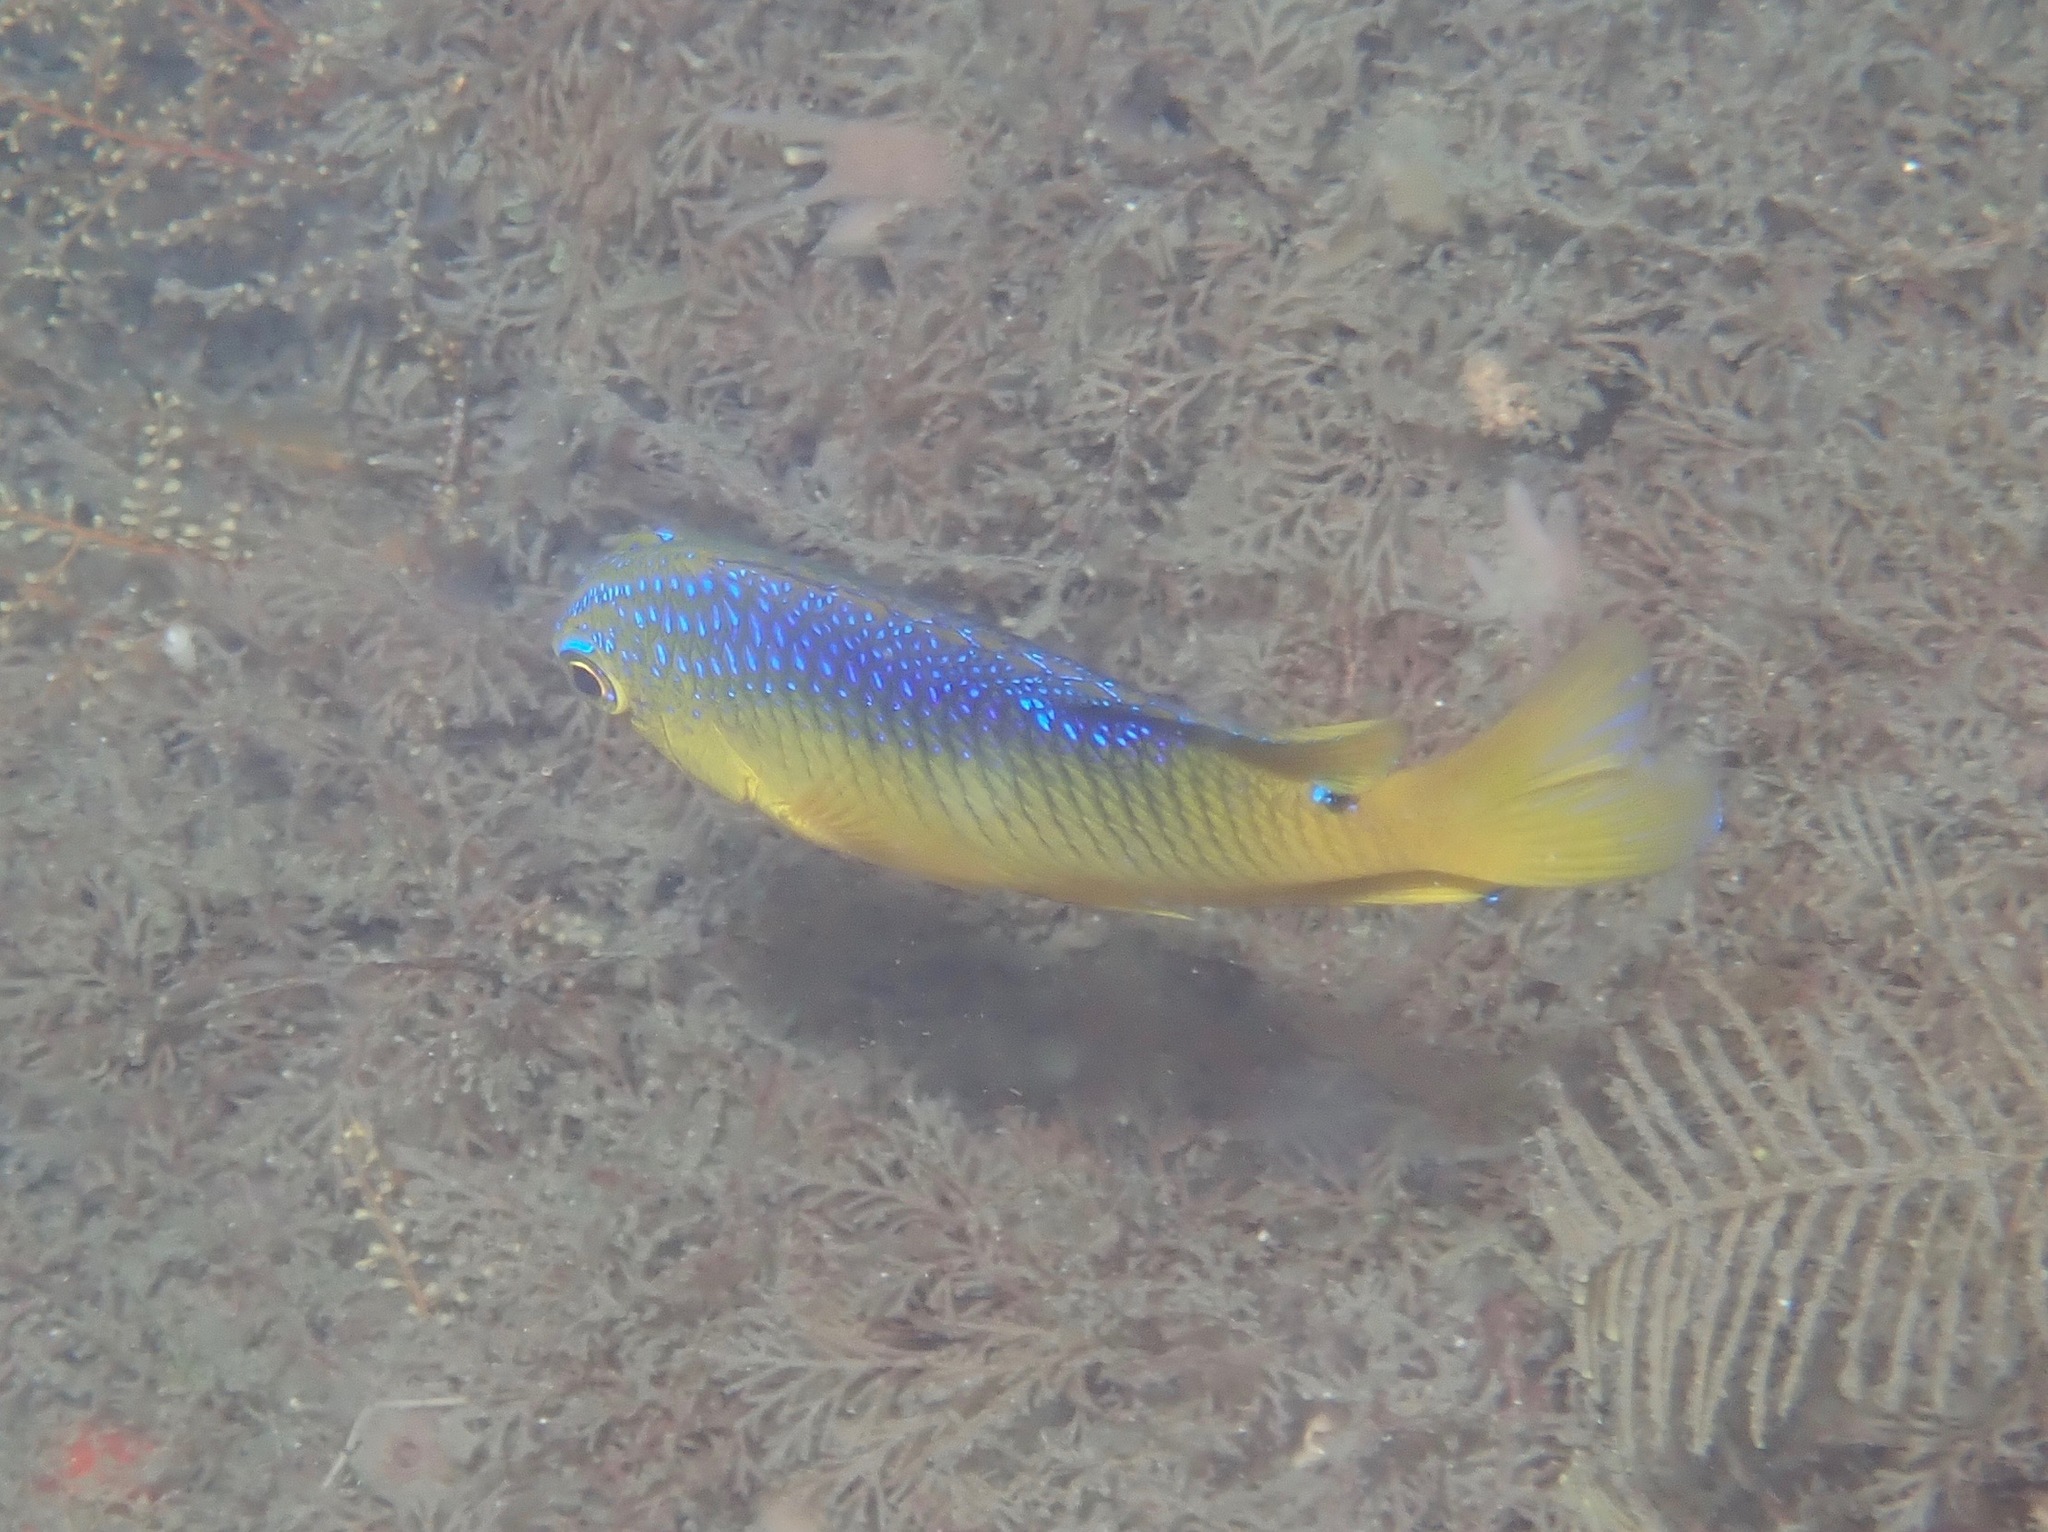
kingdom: Animalia
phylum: Chordata
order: Perciformes
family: Pomacentridae
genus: Stegastes
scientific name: Stegastes xanthurus
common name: Cocoa damselfish
